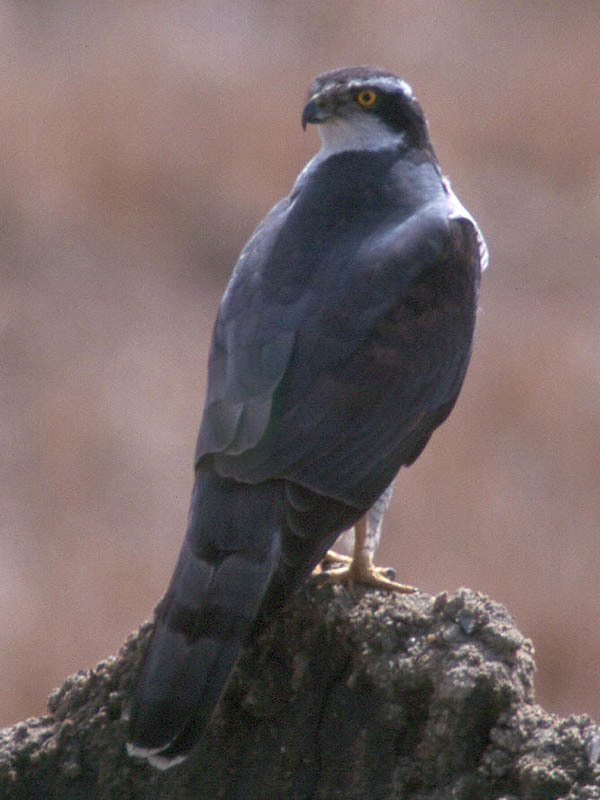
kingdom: Animalia
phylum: Chordata
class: Aves
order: Accipitriformes
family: Accipitridae
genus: Accipiter
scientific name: Accipiter gentilis
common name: Northern goshawk
